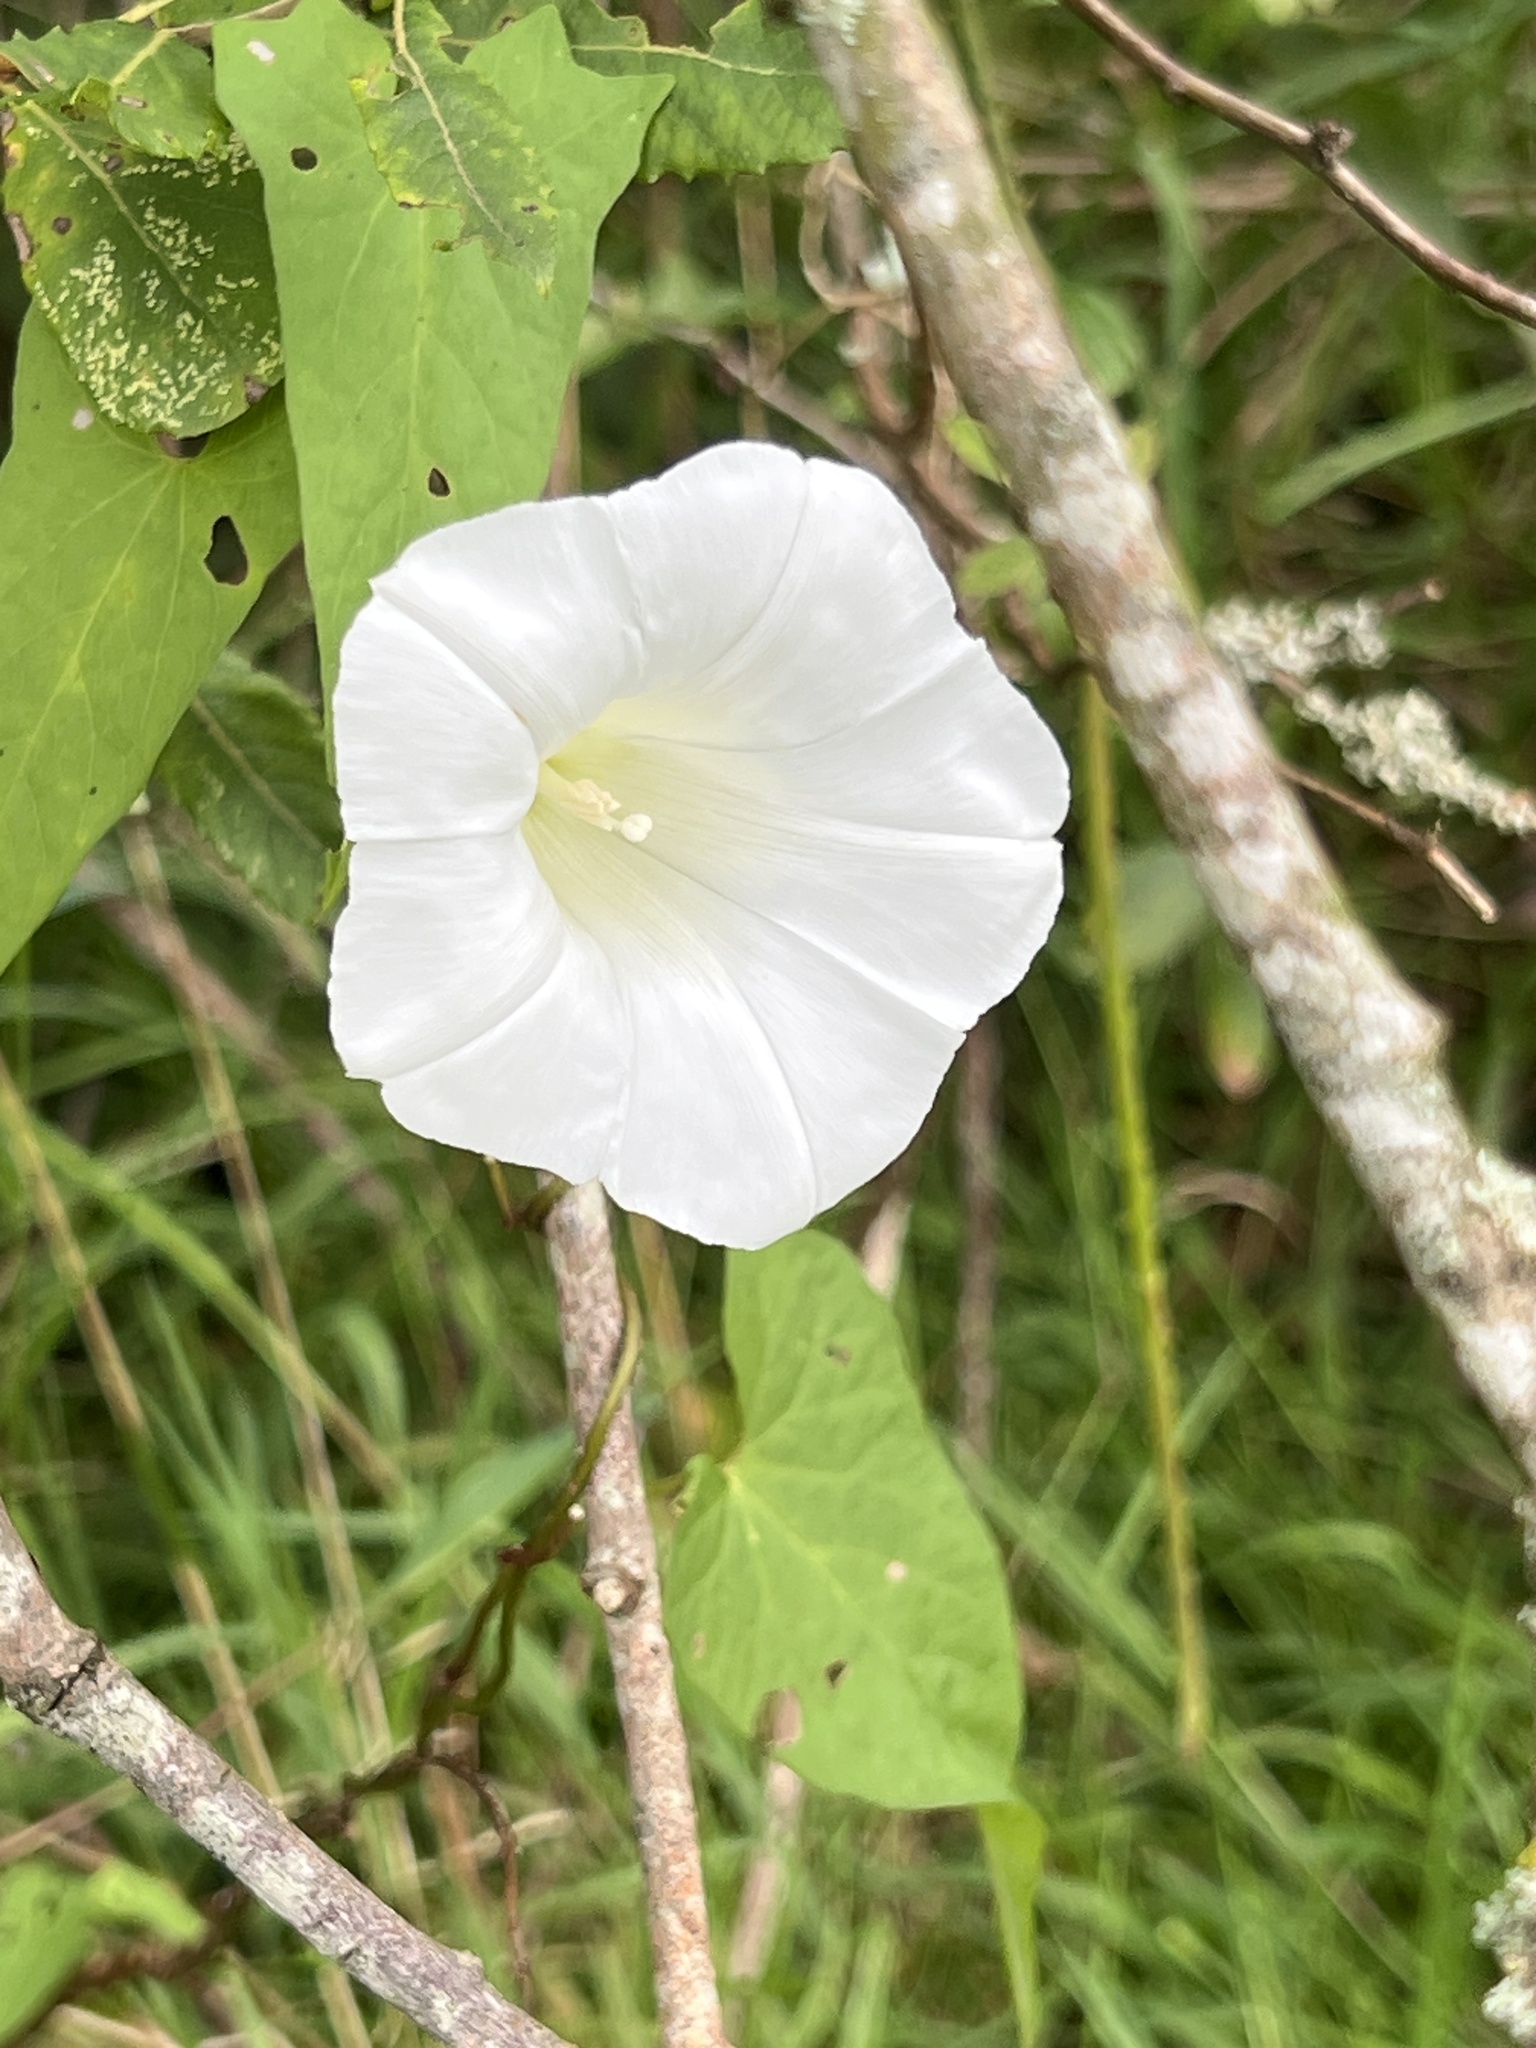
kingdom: Plantae
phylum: Tracheophyta
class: Magnoliopsida
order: Solanales
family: Convolvulaceae
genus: Calystegia
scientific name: Calystegia
